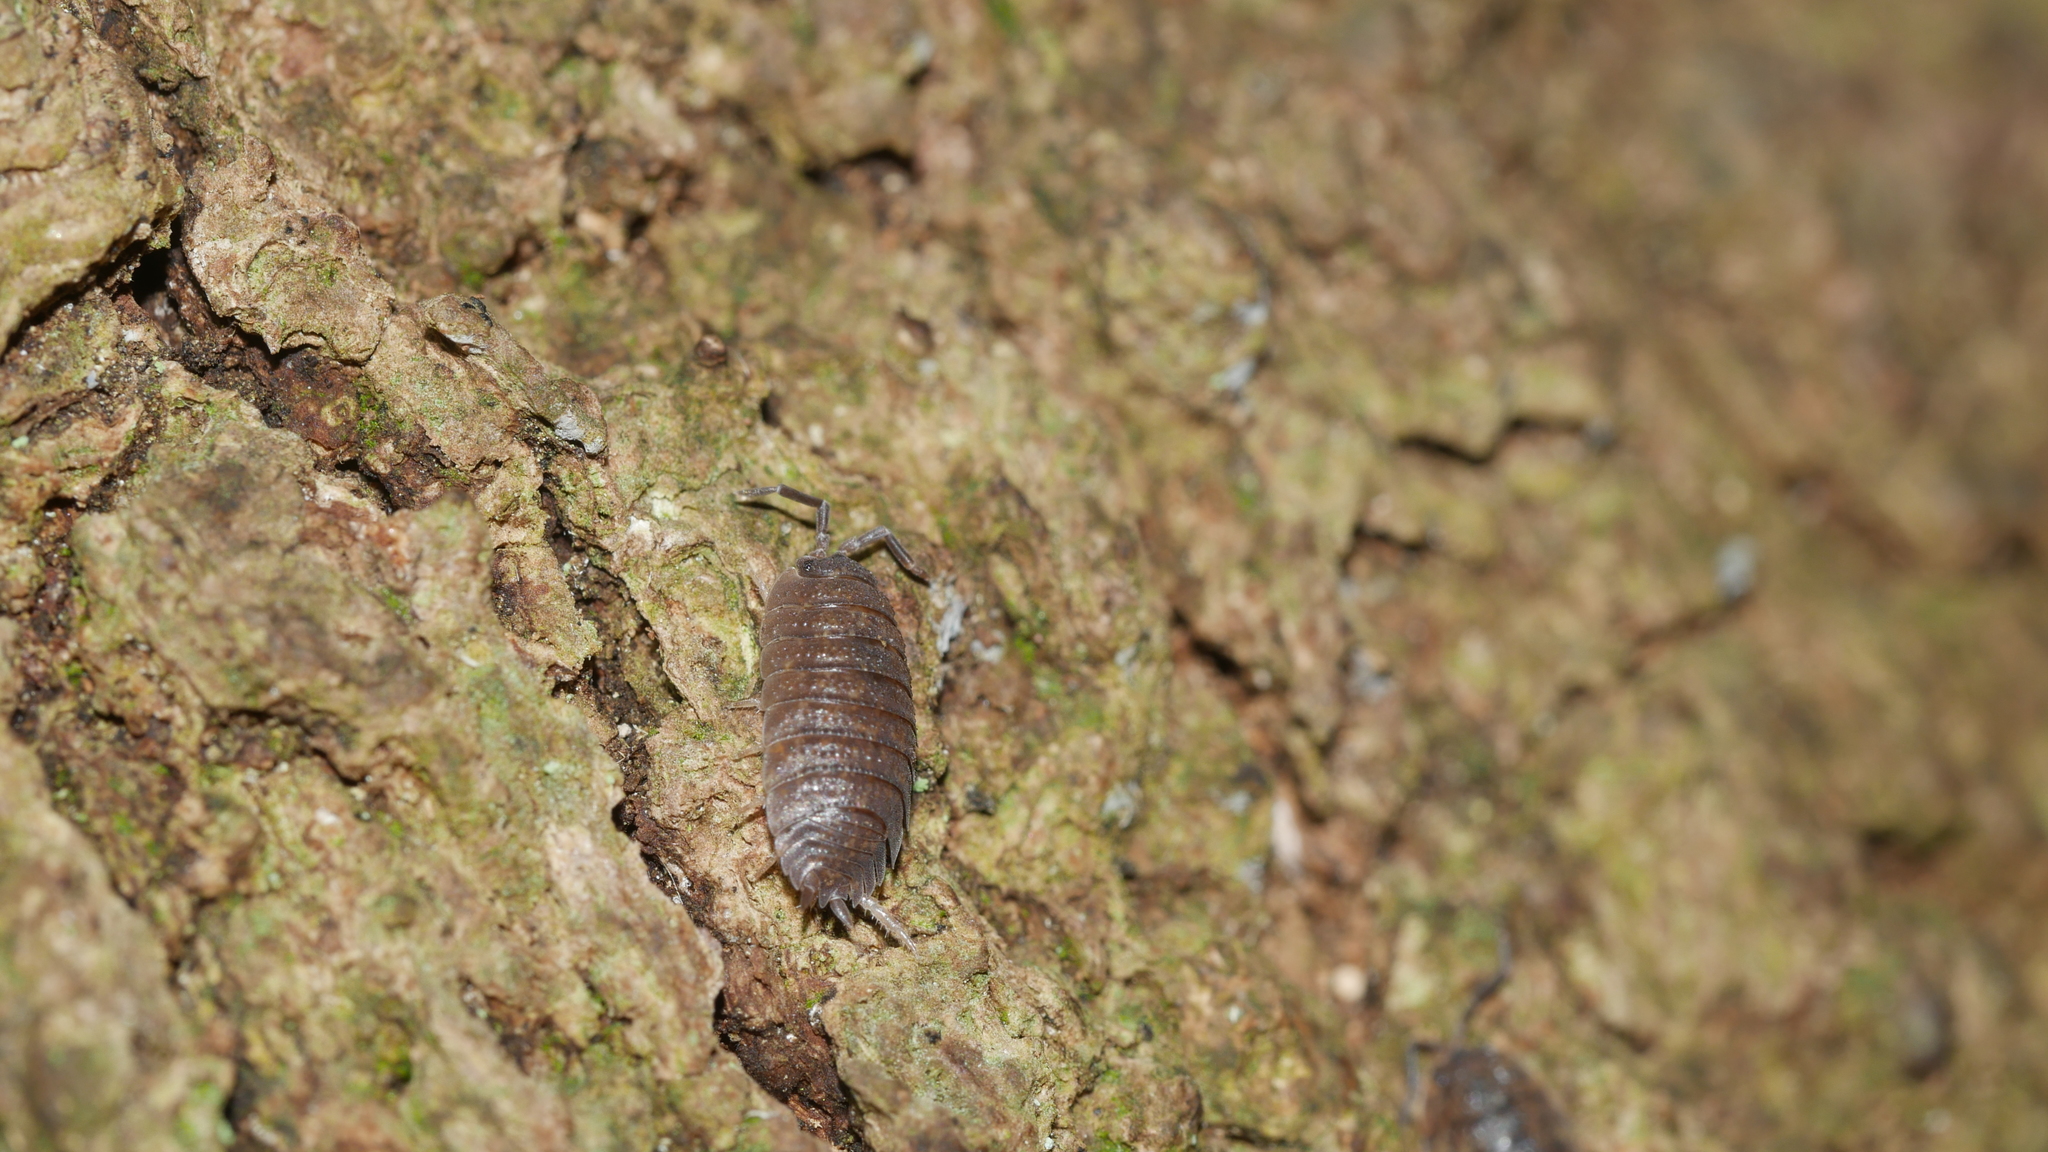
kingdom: Animalia
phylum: Arthropoda
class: Malacostraca
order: Isopoda
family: Porcellionidae
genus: Porcellio
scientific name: Porcellio scaber
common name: Common rough woodlouse
